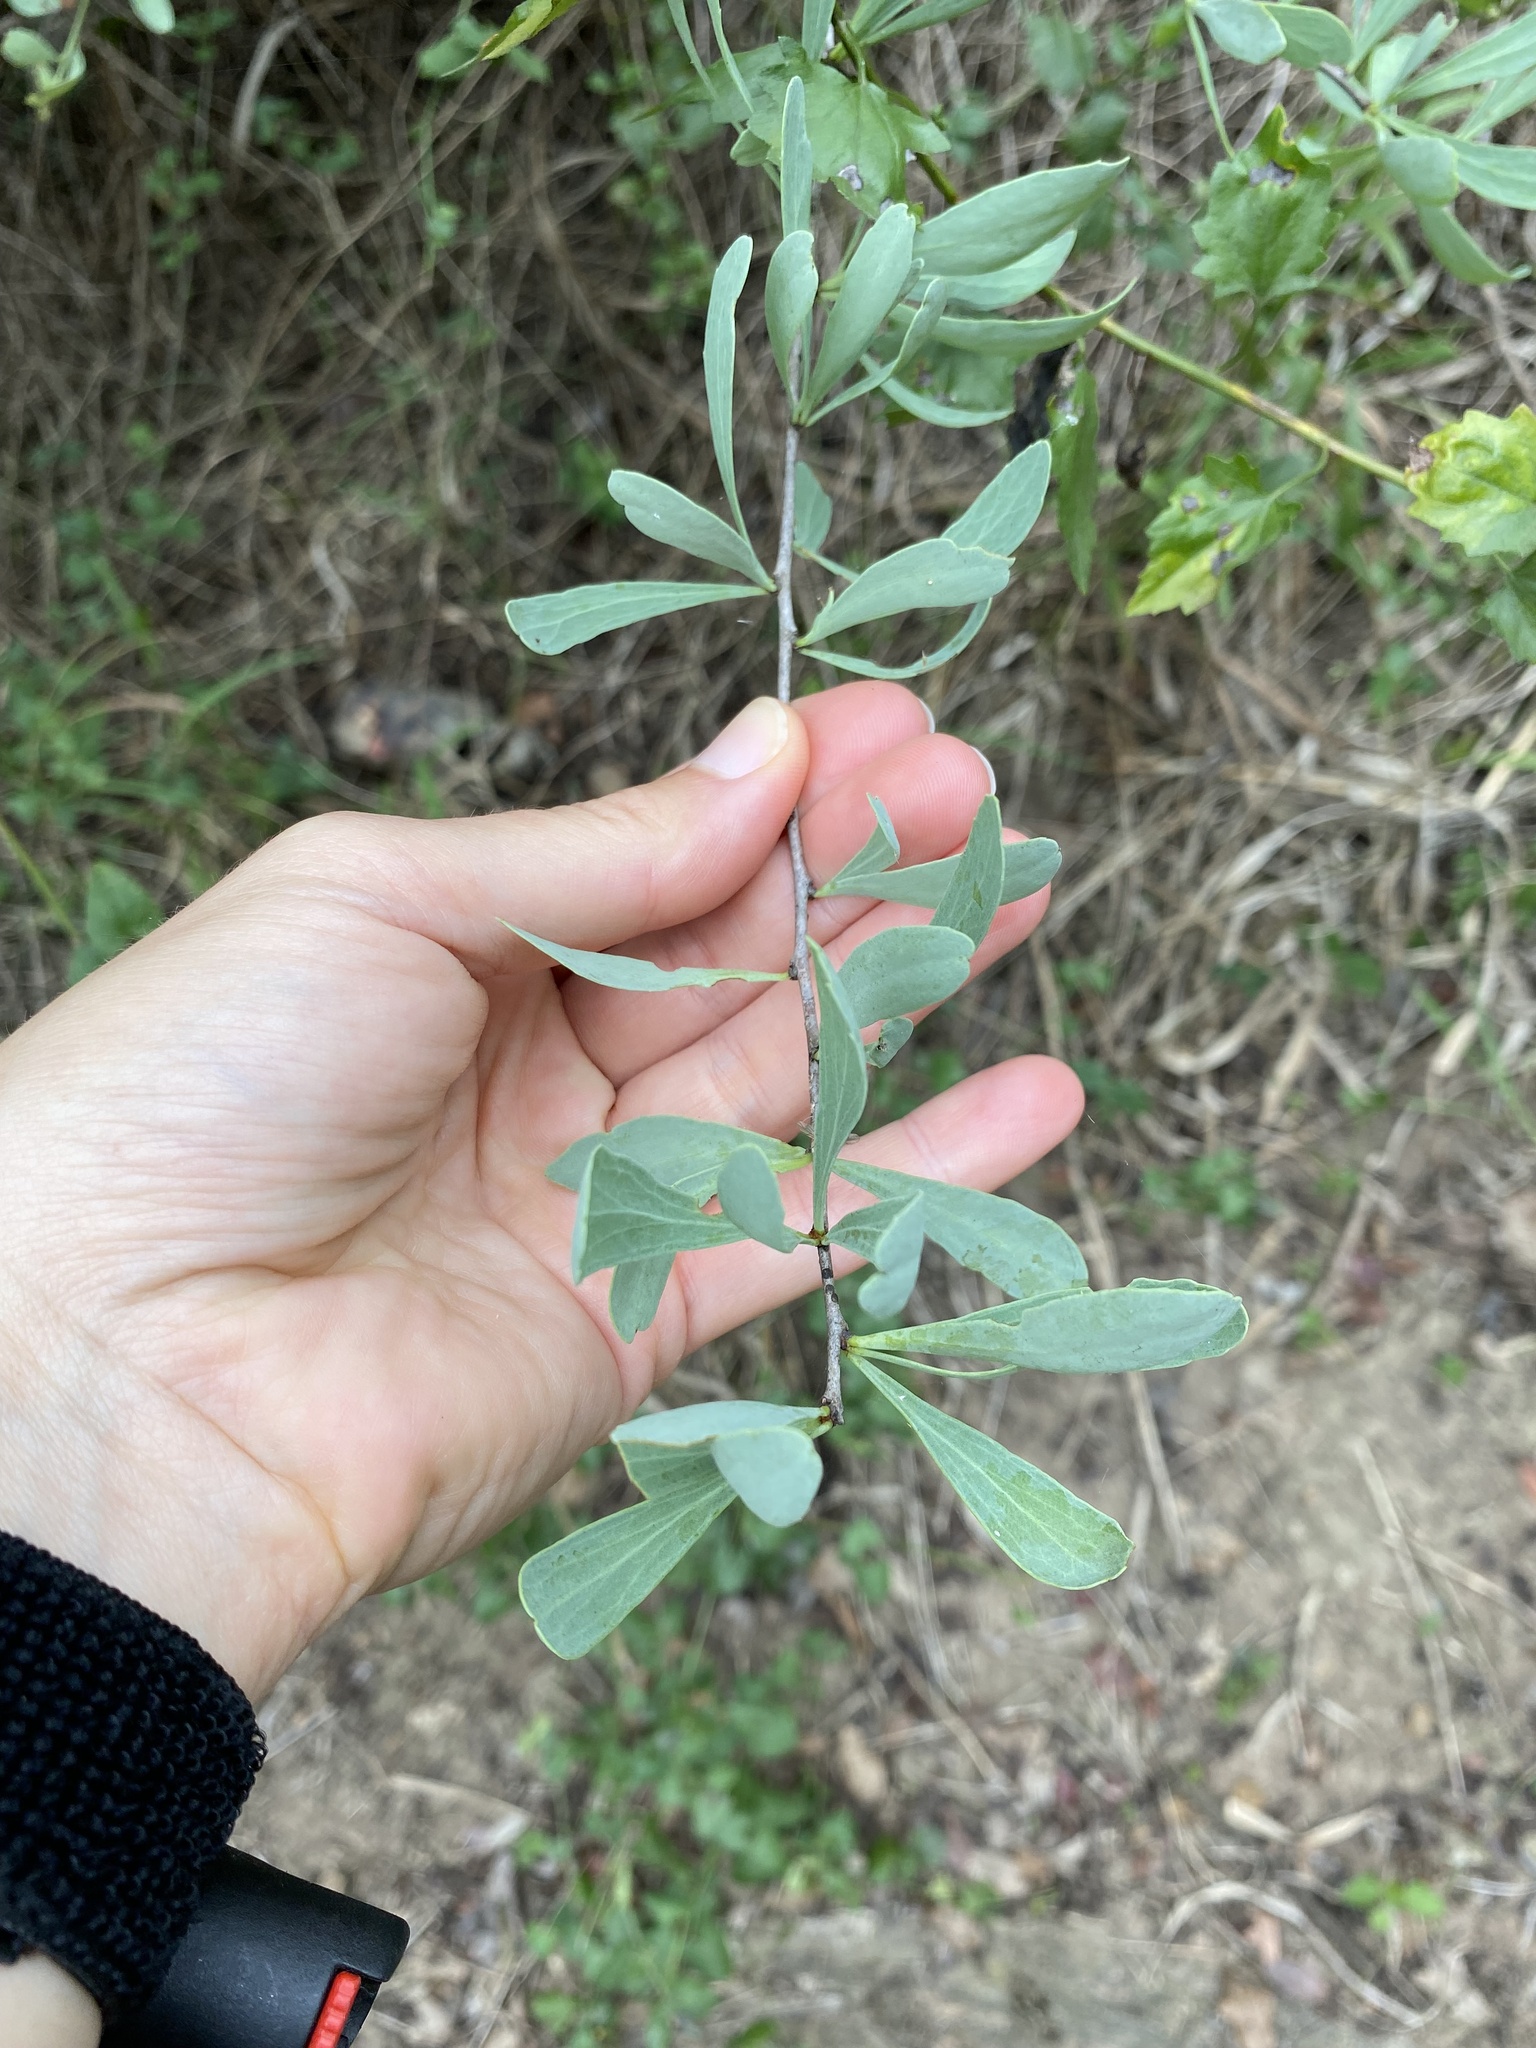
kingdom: Plantae
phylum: Tracheophyta
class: Magnoliopsida
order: Celastrales
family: Celastraceae
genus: Gymnosporia
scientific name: Gymnosporia glaucophylla
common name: Blue spike-thorn
